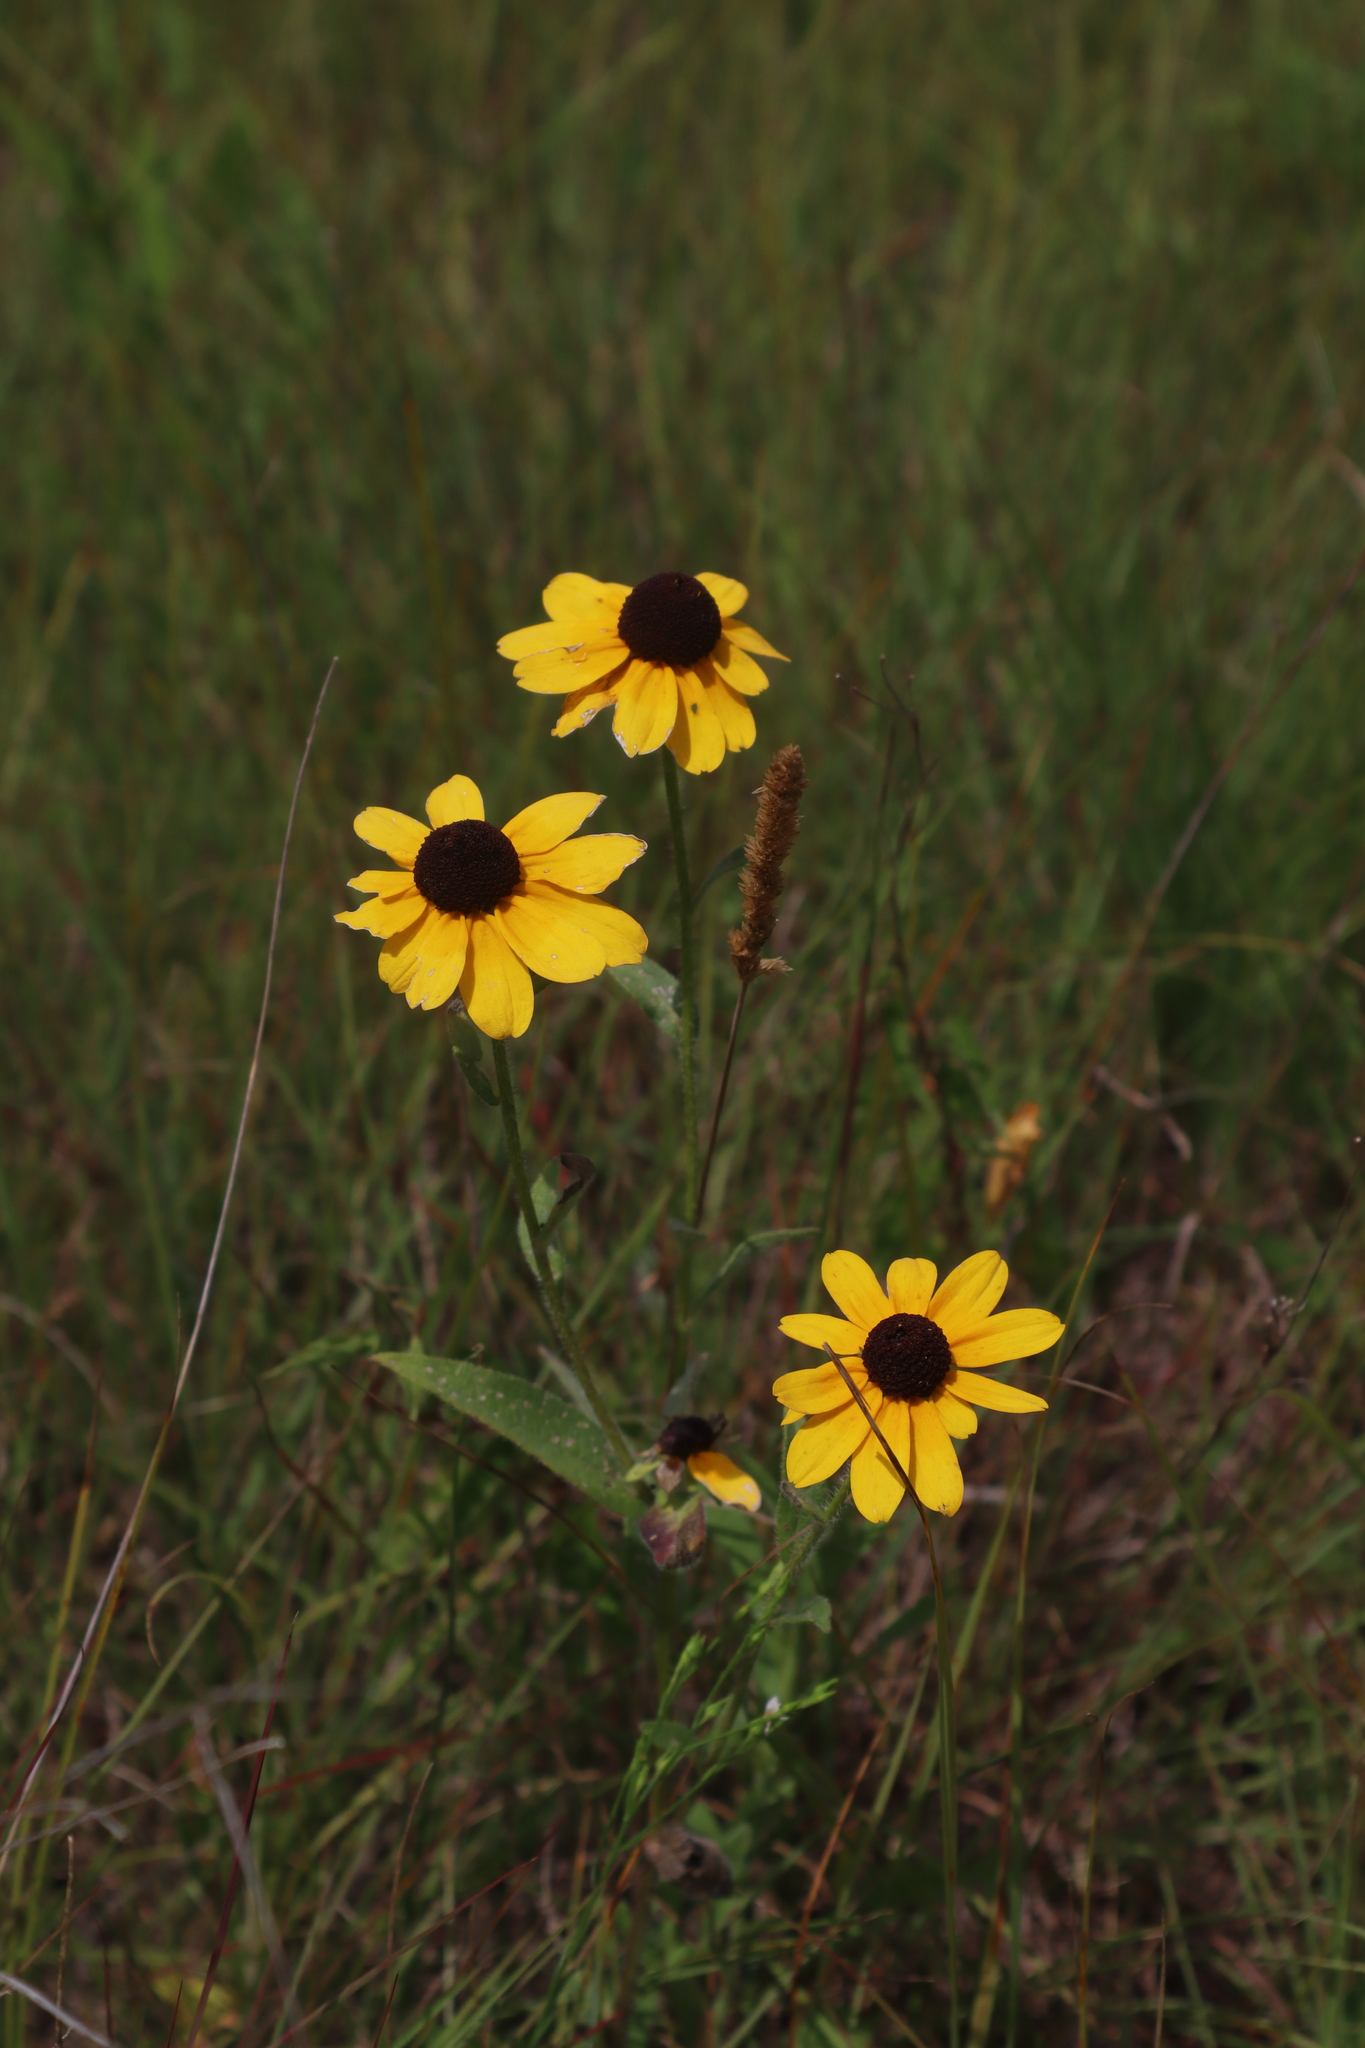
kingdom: Plantae
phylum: Tracheophyta
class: Magnoliopsida
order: Asterales
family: Asteraceae
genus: Rudbeckia
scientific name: Rudbeckia hirta
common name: Black-eyed-susan
